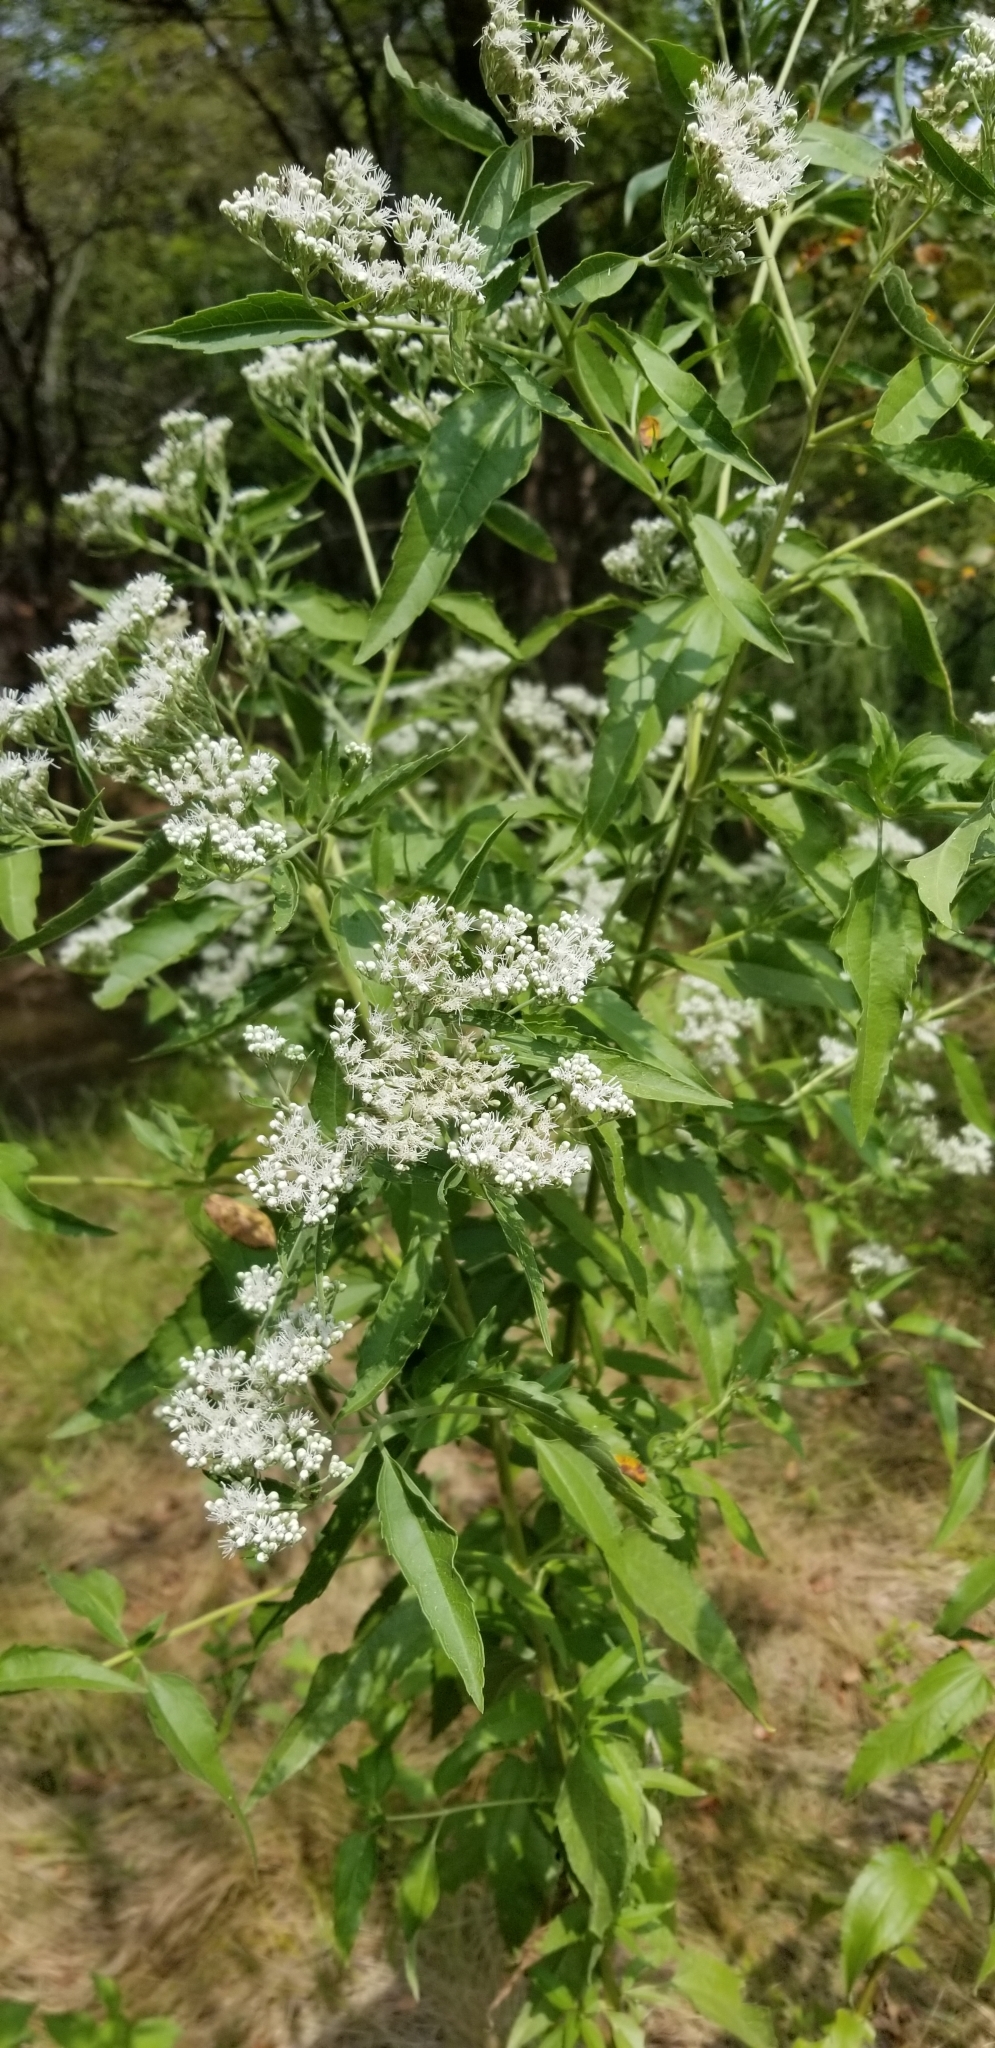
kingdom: Plantae
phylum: Tracheophyta
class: Magnoliopsida
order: Asterales
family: Asteraceae
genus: Eupatorium
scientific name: Eupatorium serotinum
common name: Late boneset
